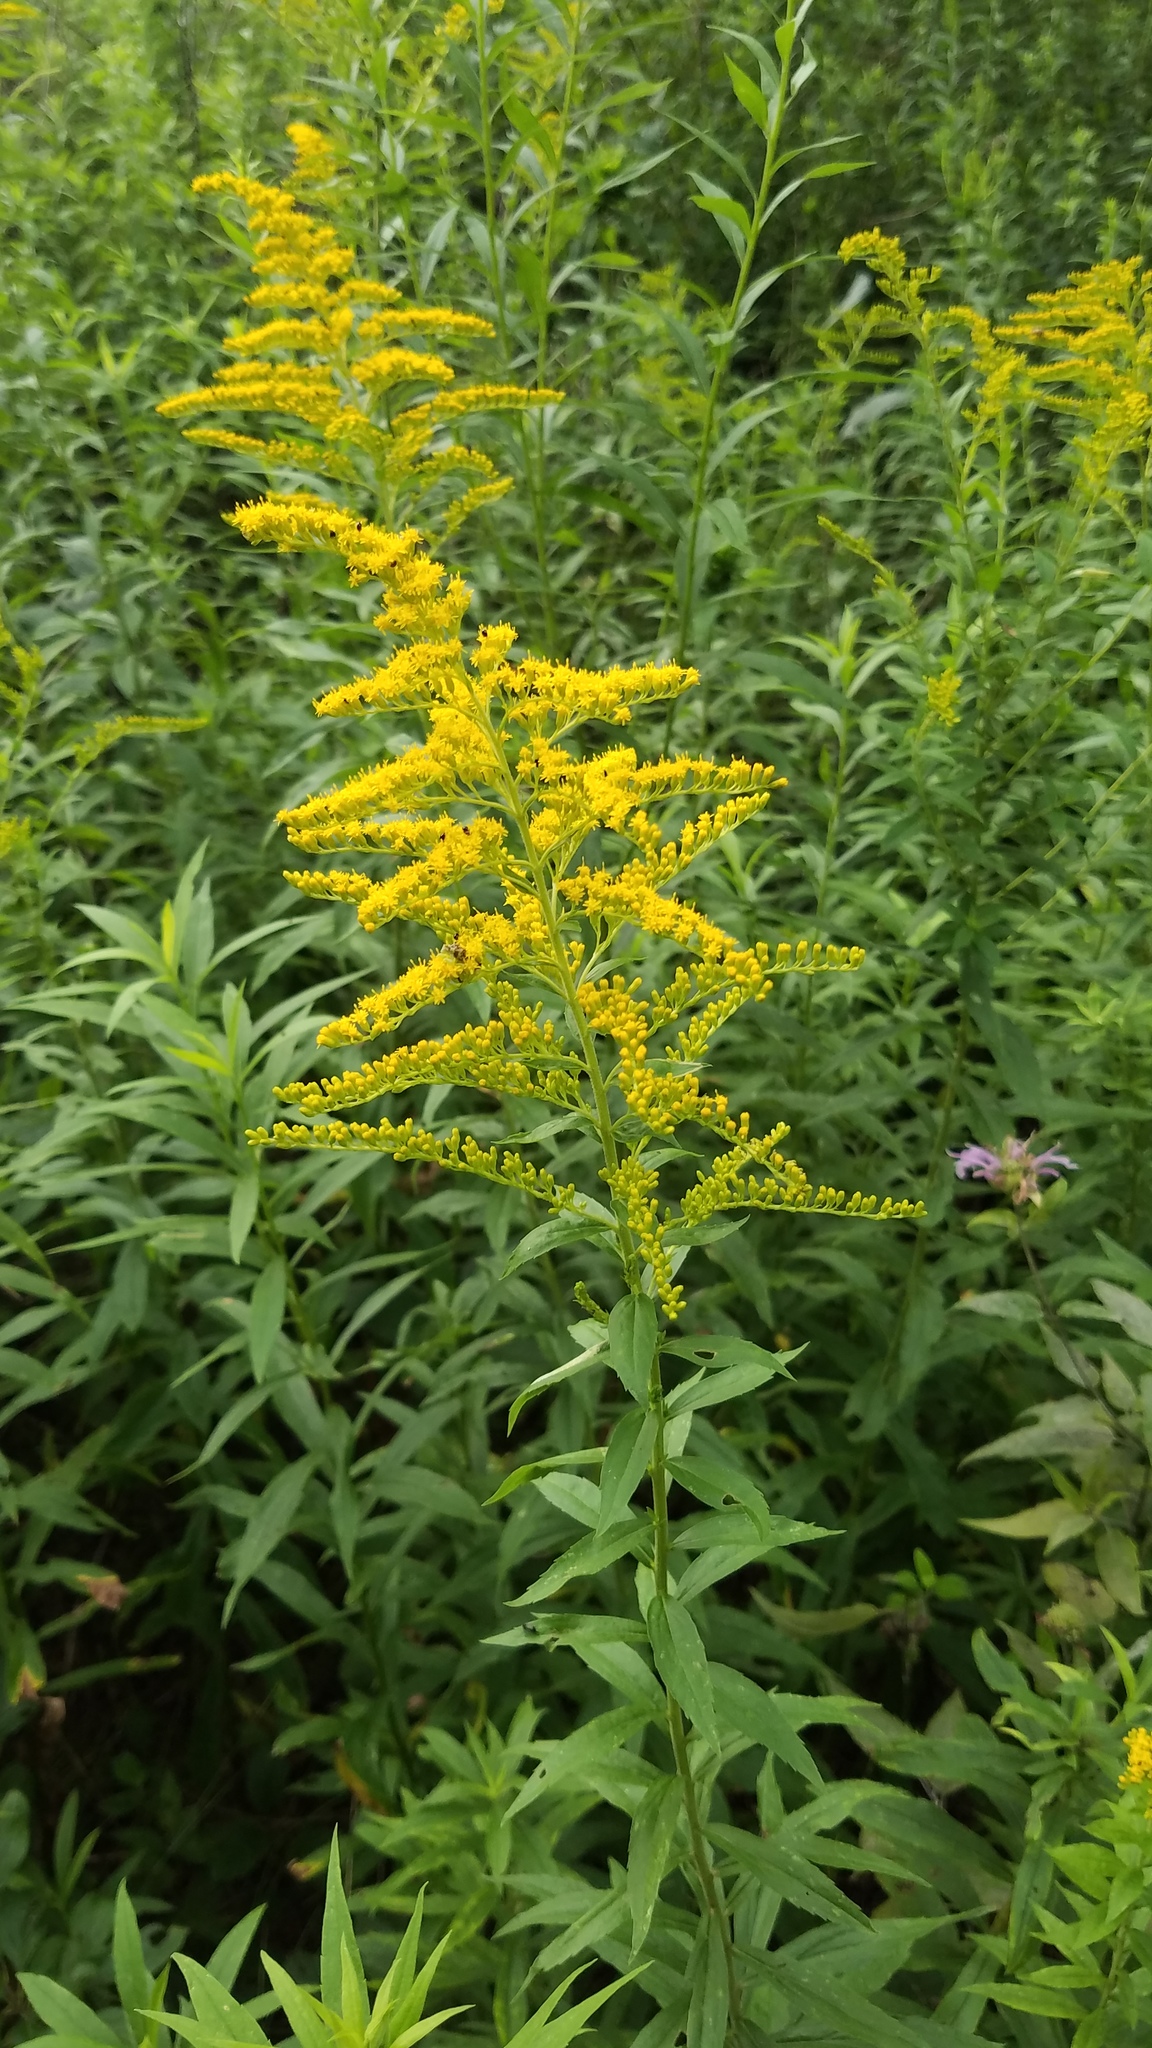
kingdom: Plantae
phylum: Tracheophyta
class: Magnoliopsida
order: Asterales
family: Asteraceae
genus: Solidago
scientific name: Solidago altissima
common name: Late goldenrod
